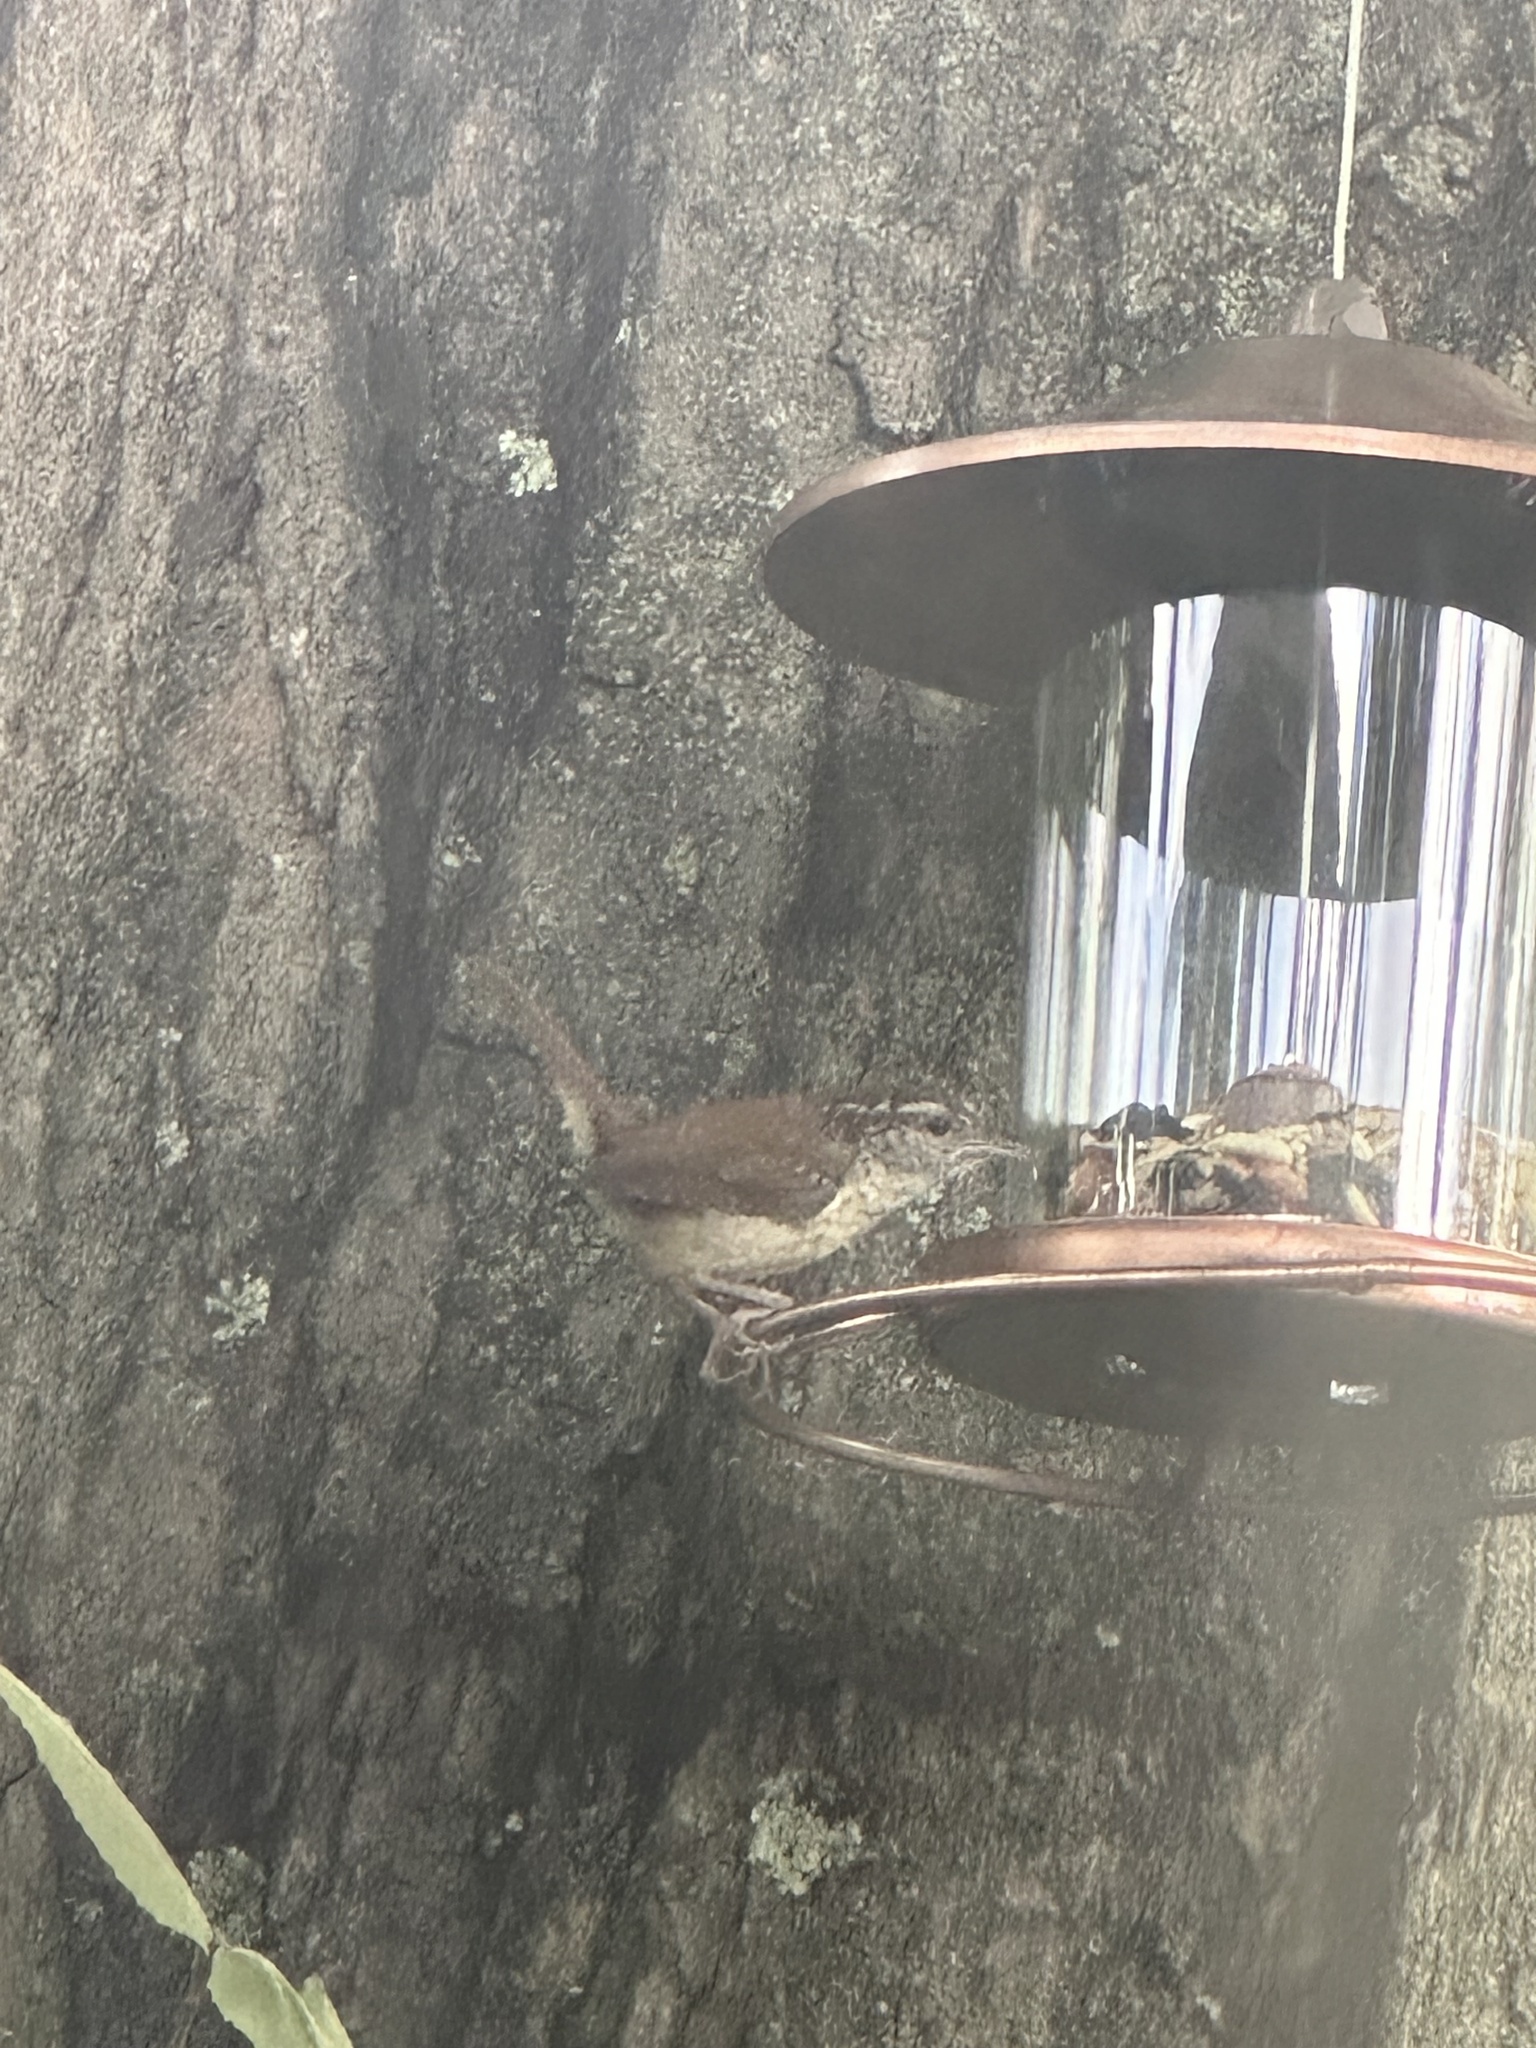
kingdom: Animalia
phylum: Chordata
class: Aves
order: Passeriformes
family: Troglodytidae
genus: Thryothorus
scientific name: Thryothorus ludovicianus
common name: Carolina wren
